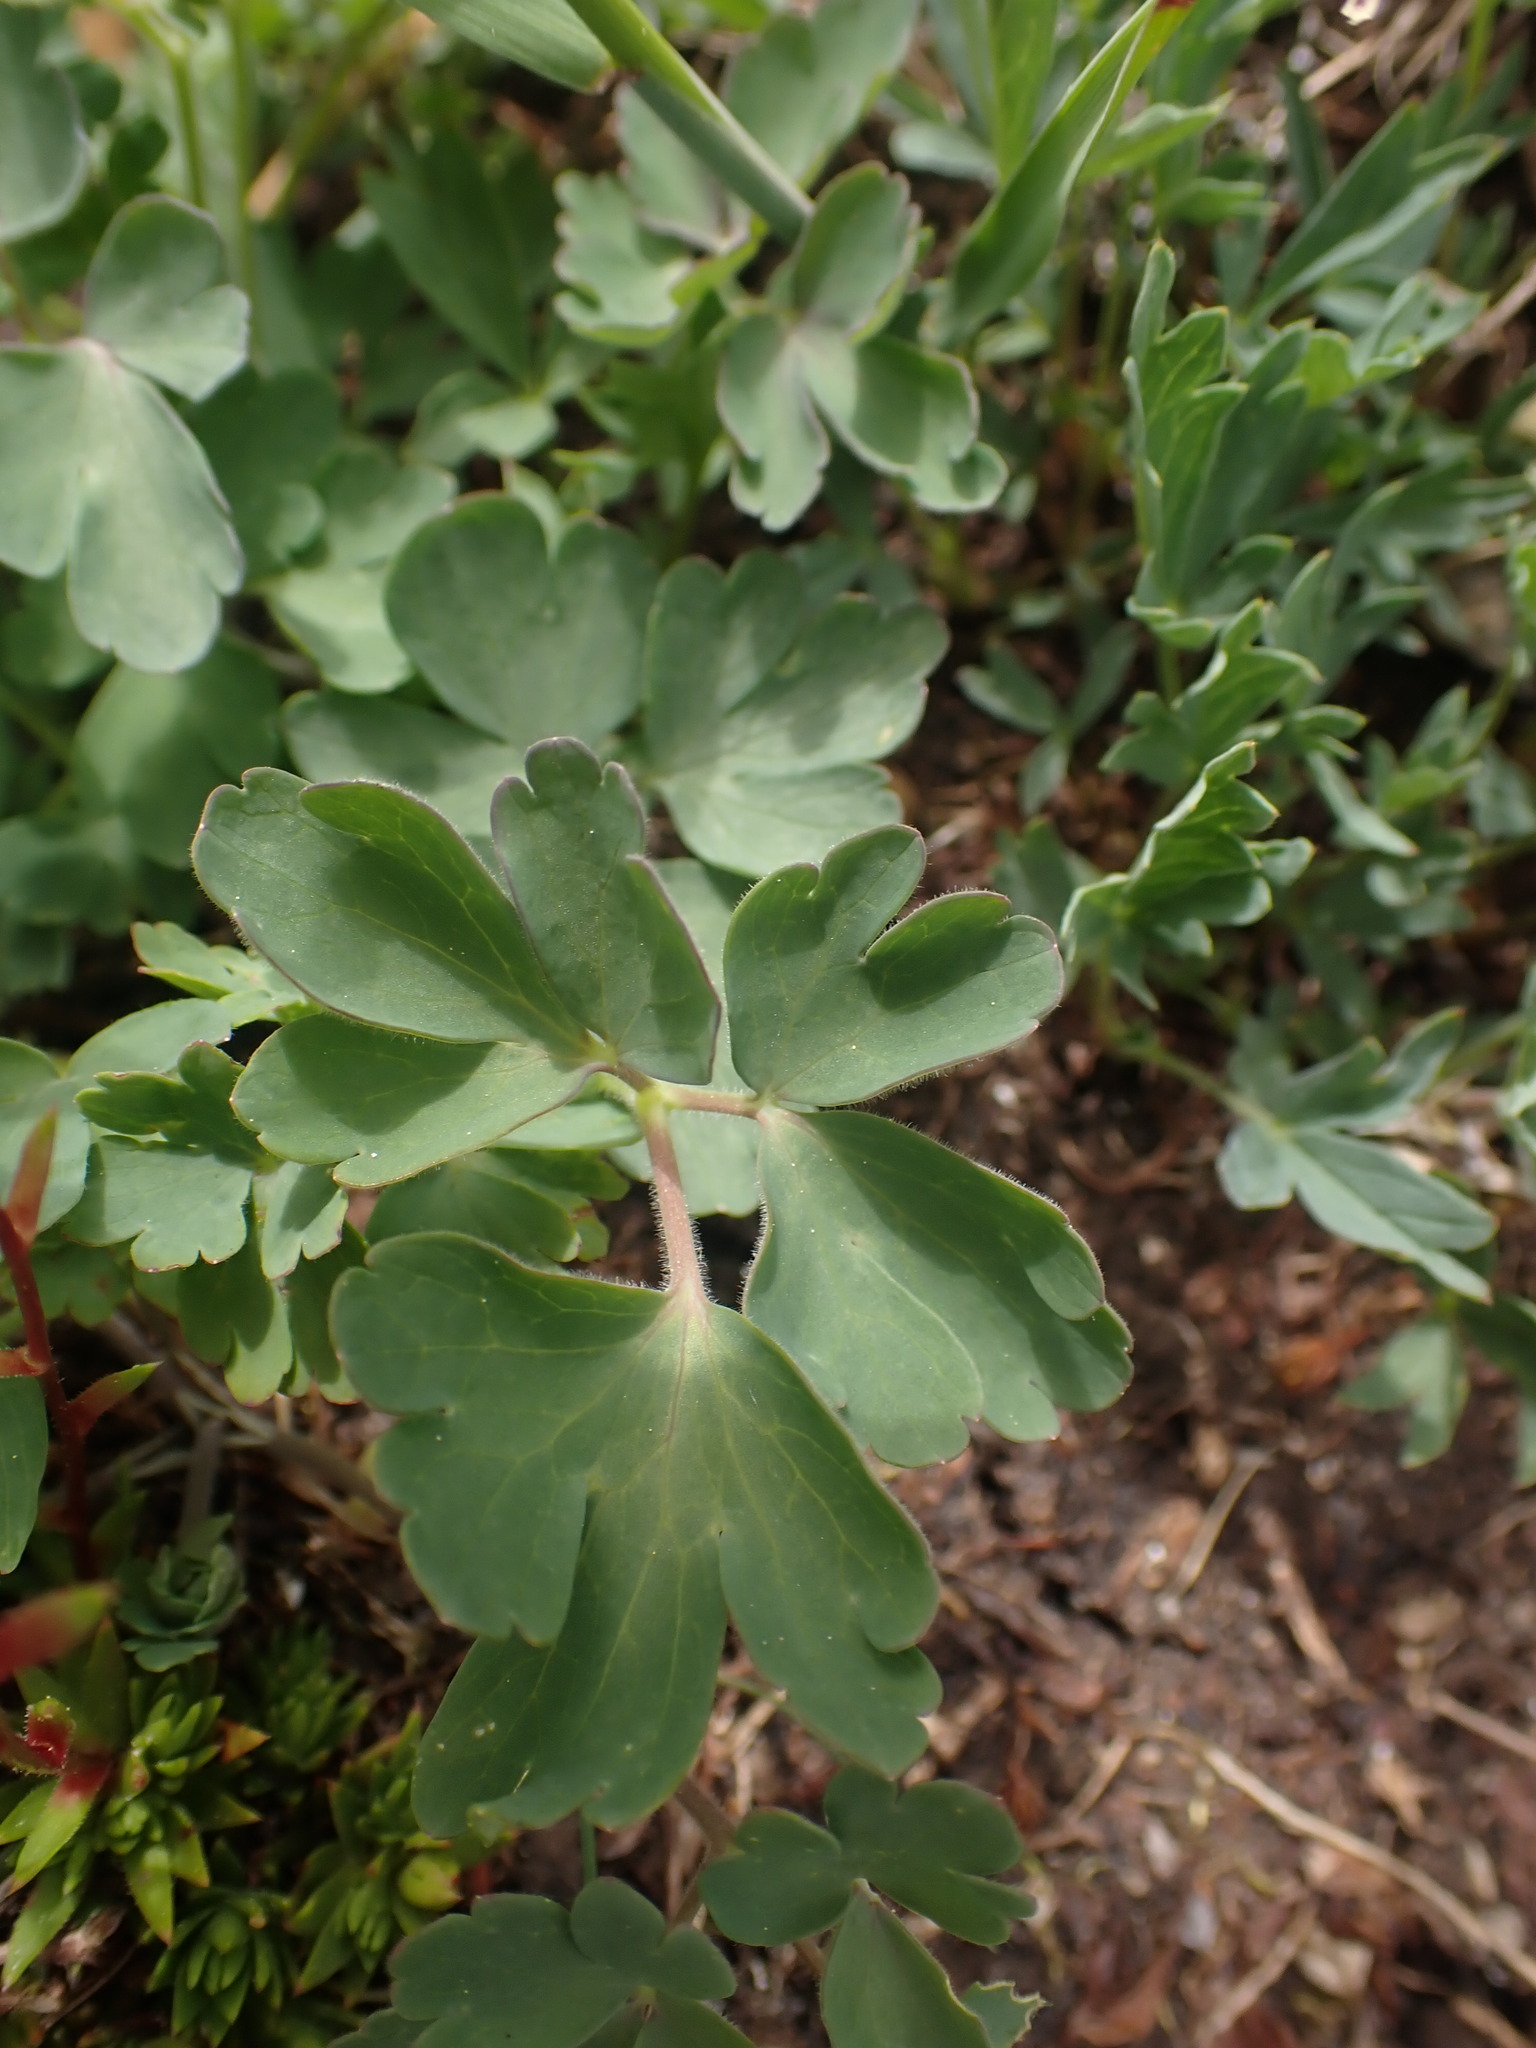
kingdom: Plantae
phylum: Tracheophyta
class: Magnoliopsida
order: Ranunculales
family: Ranunculaceae
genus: Aquilegia
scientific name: Aquilegia flavescens
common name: Yellow columbine
